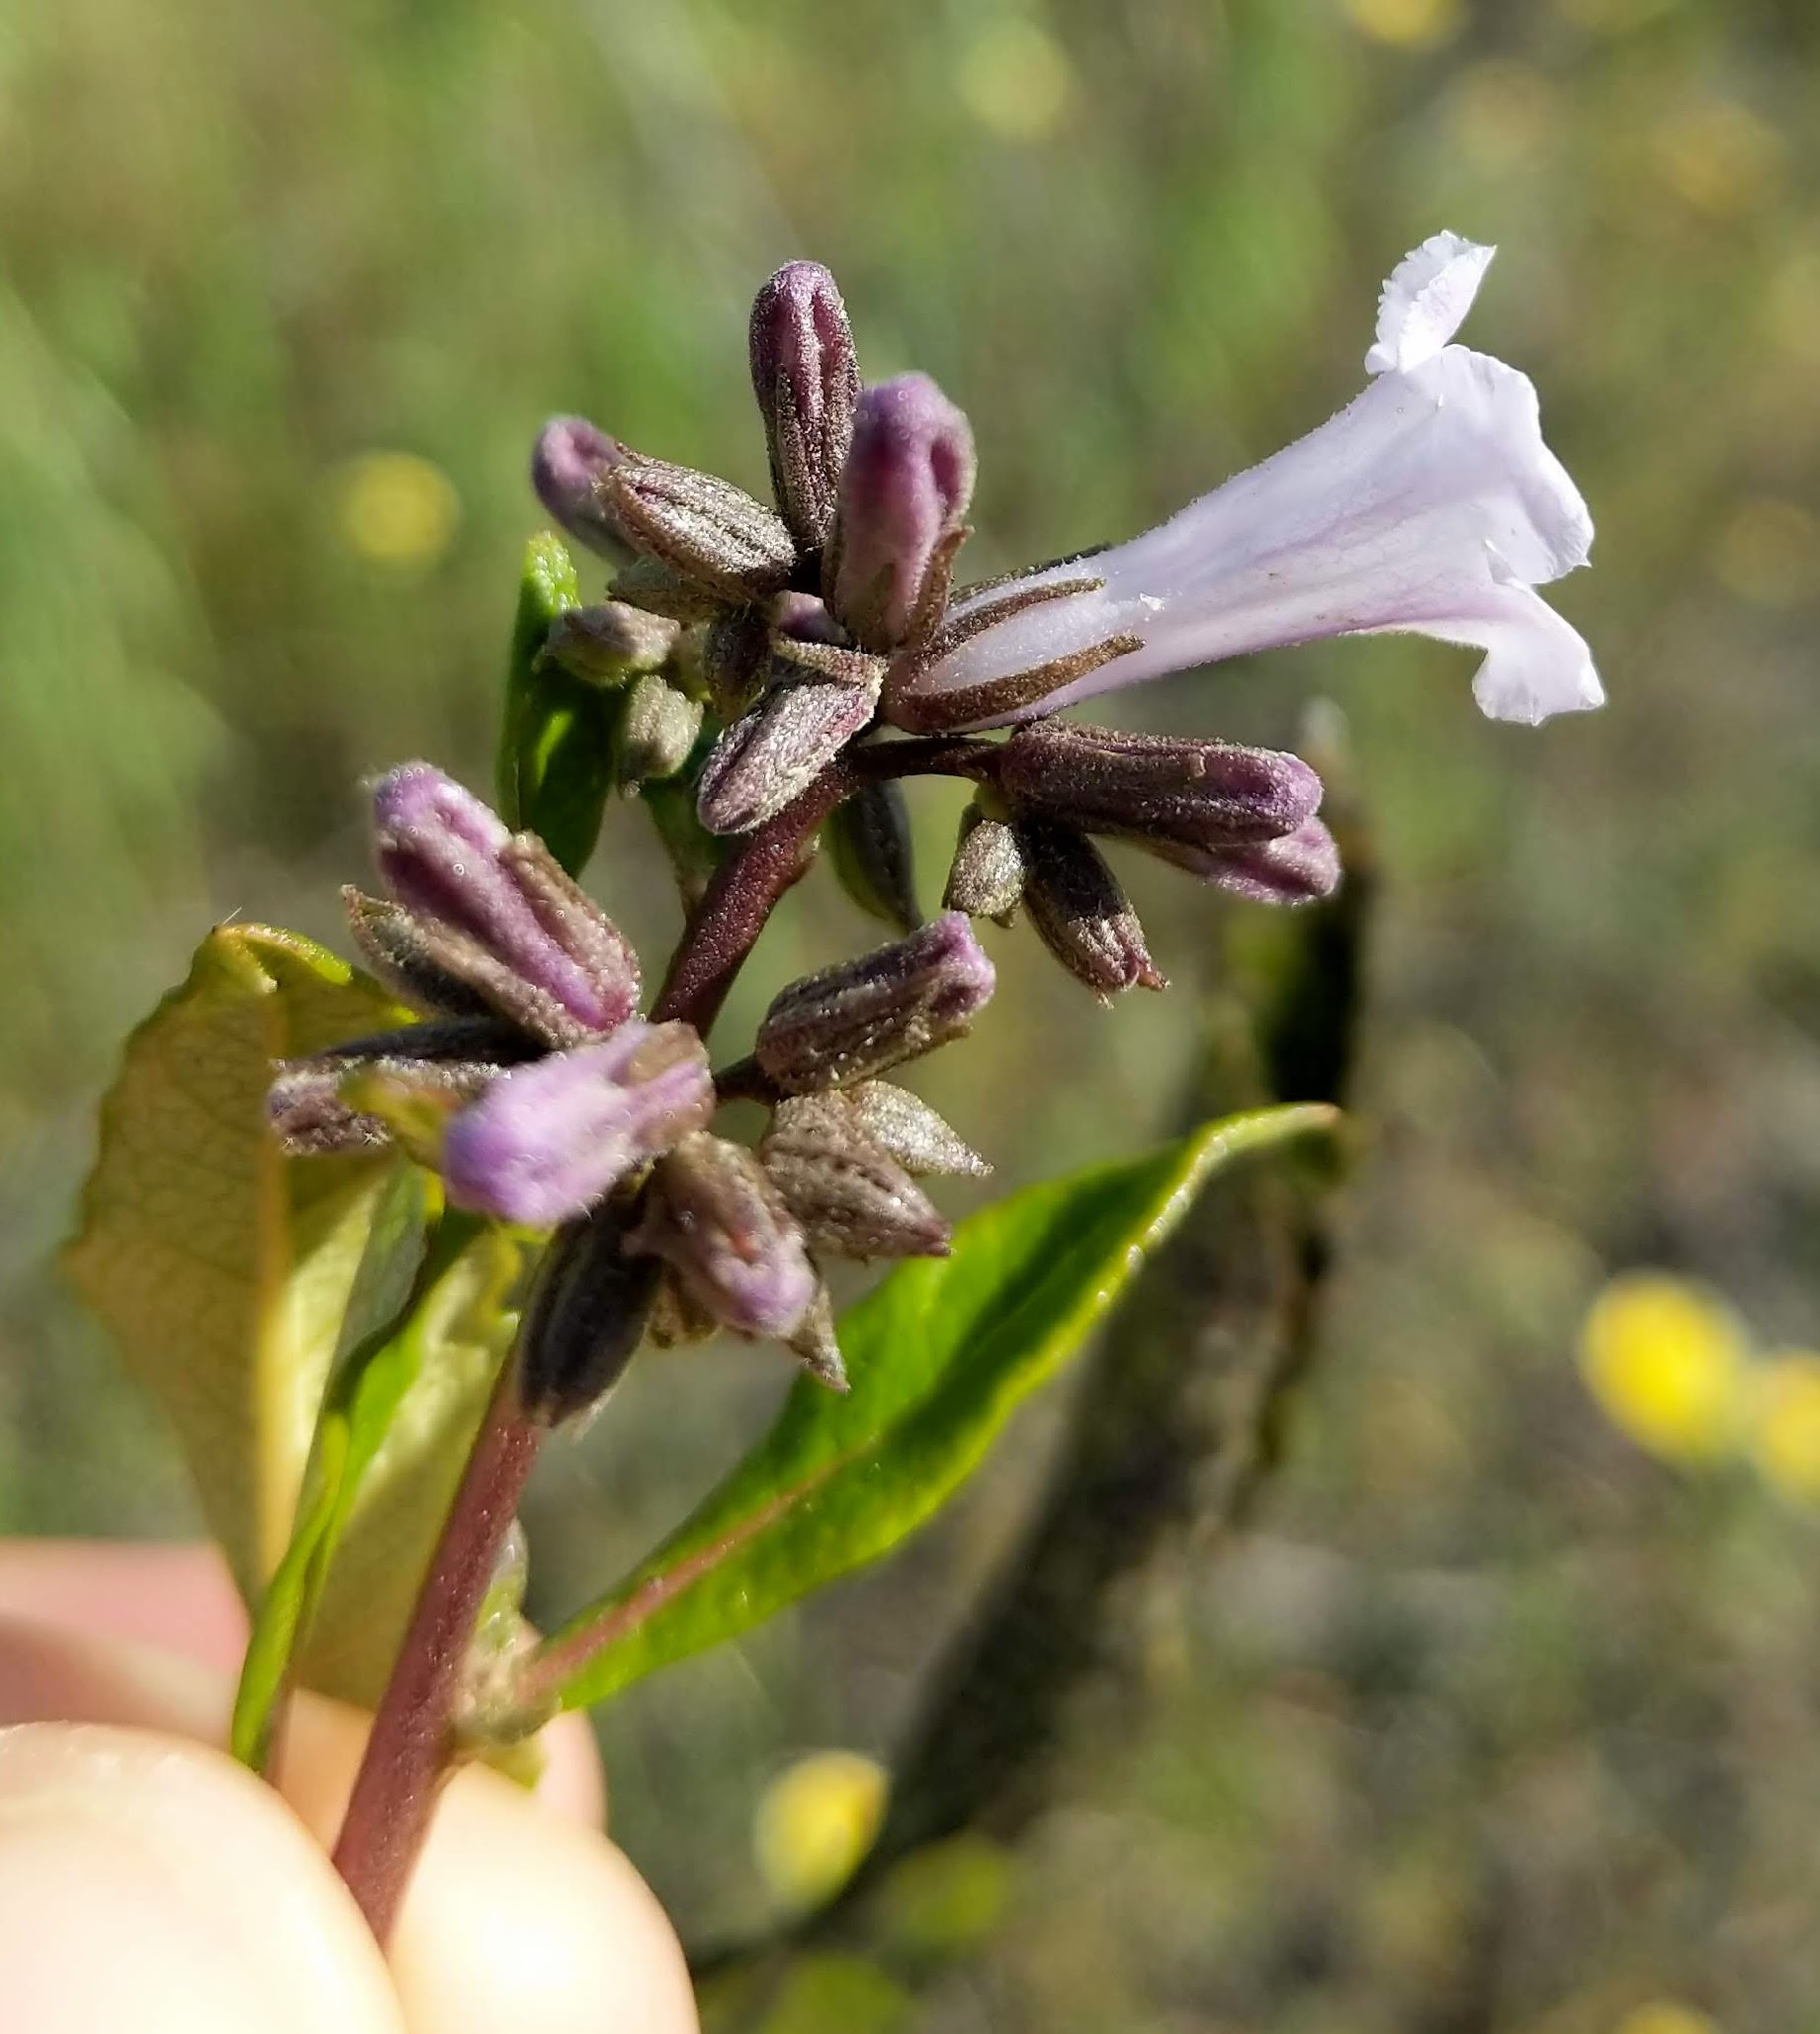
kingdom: Plantae
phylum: Tracheophyta
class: Magnoliopsida
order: Boraginales
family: Namaceae
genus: Eriodictyon
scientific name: Eriodictyon californicum
